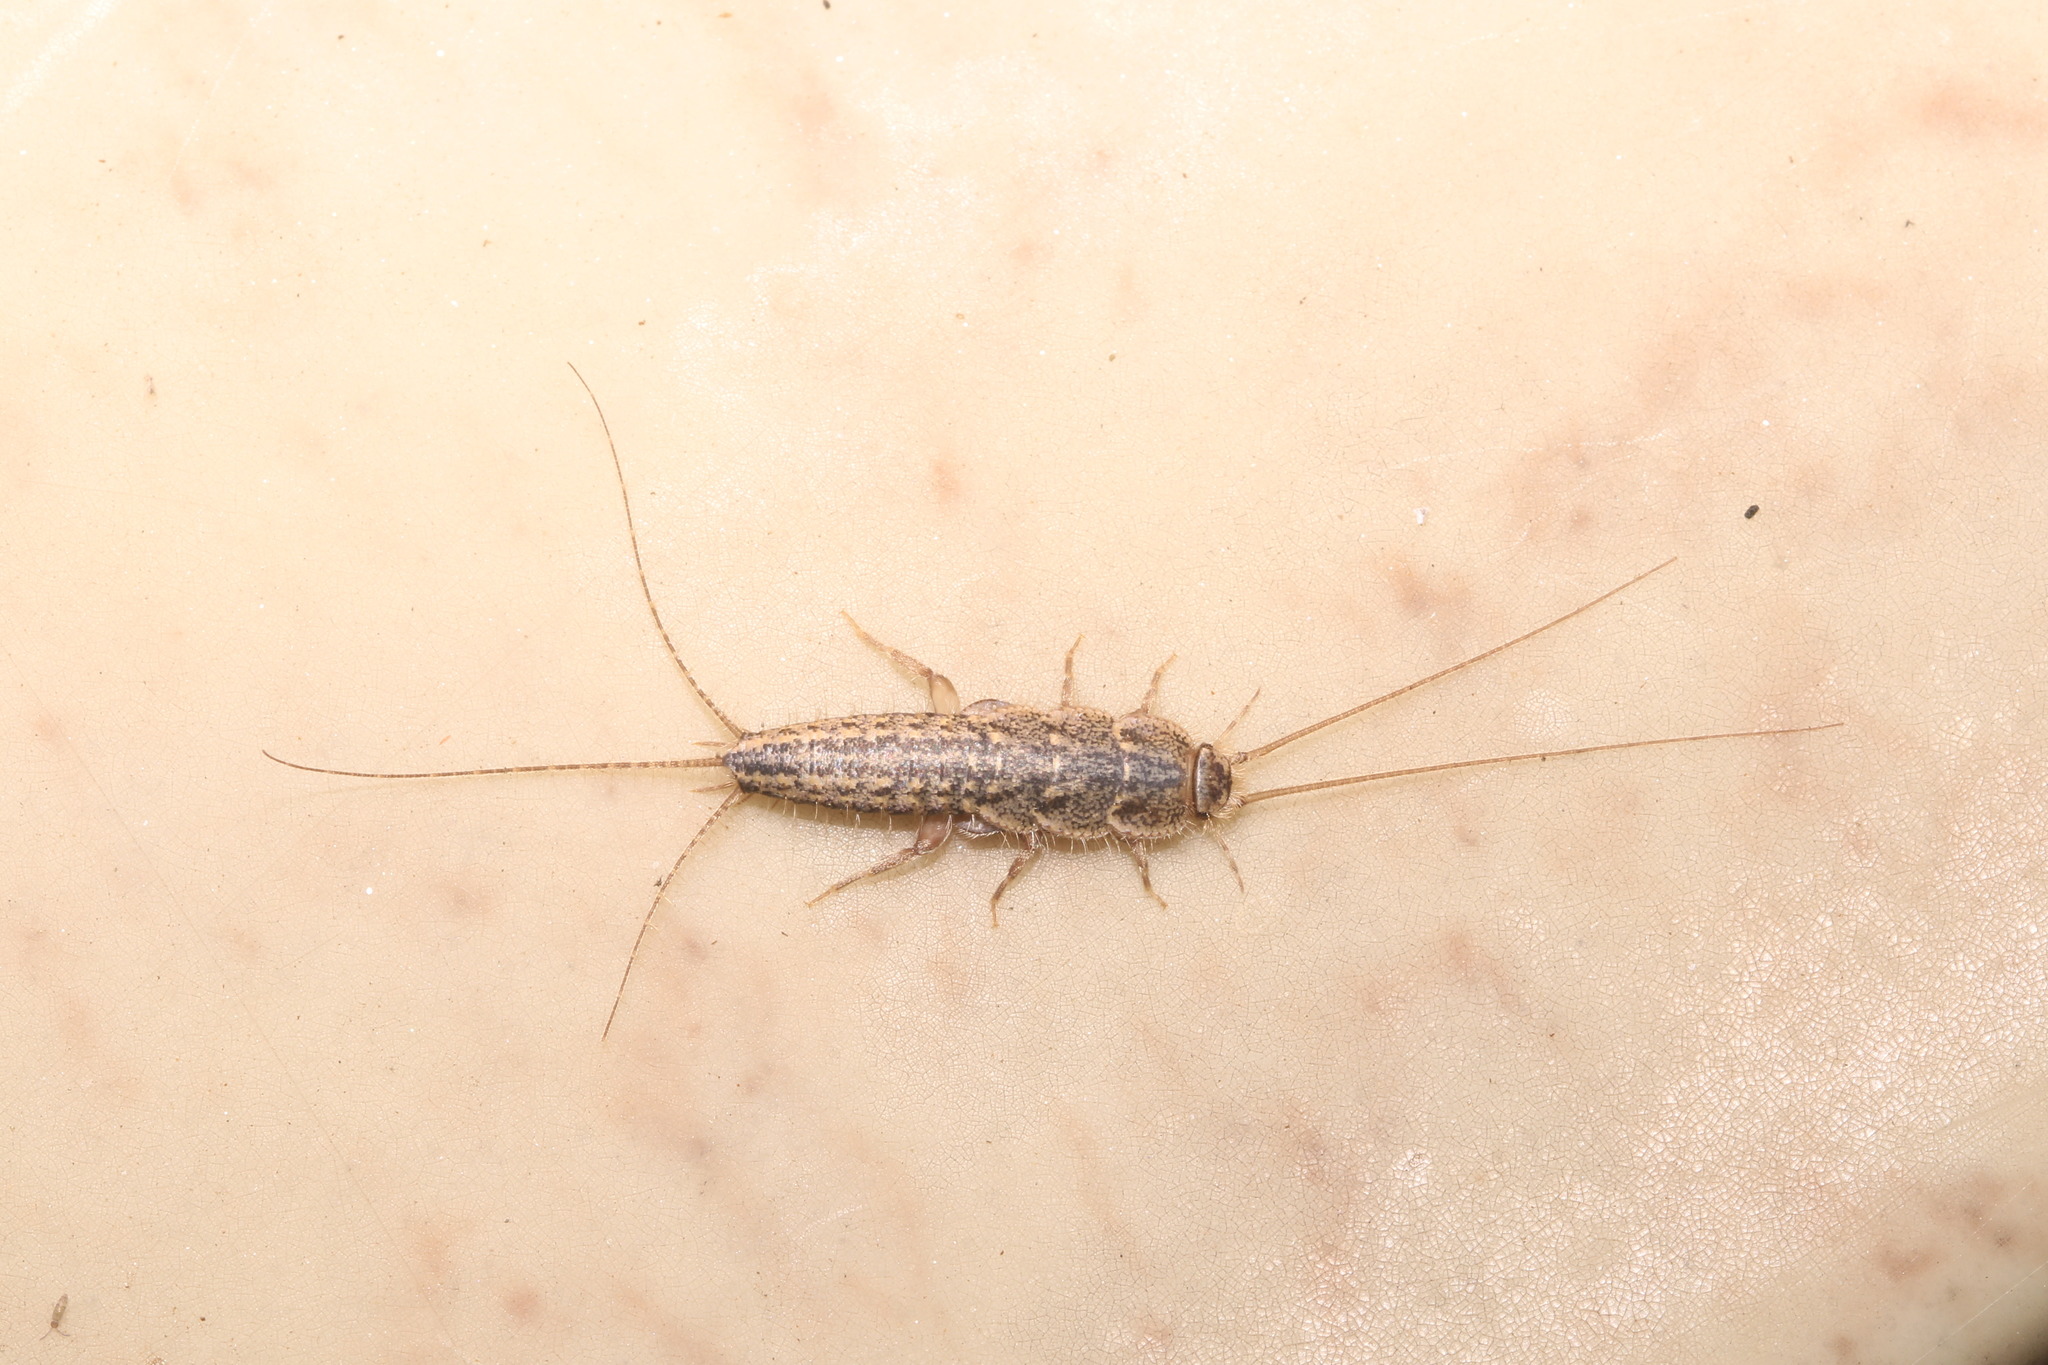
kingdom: Animalia
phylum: Arthropoda
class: Insecta
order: Zygentoma
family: Lepismatidae
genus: Ctenolepisma
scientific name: Ctenolepisma lineata
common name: Four-lined silverfish
